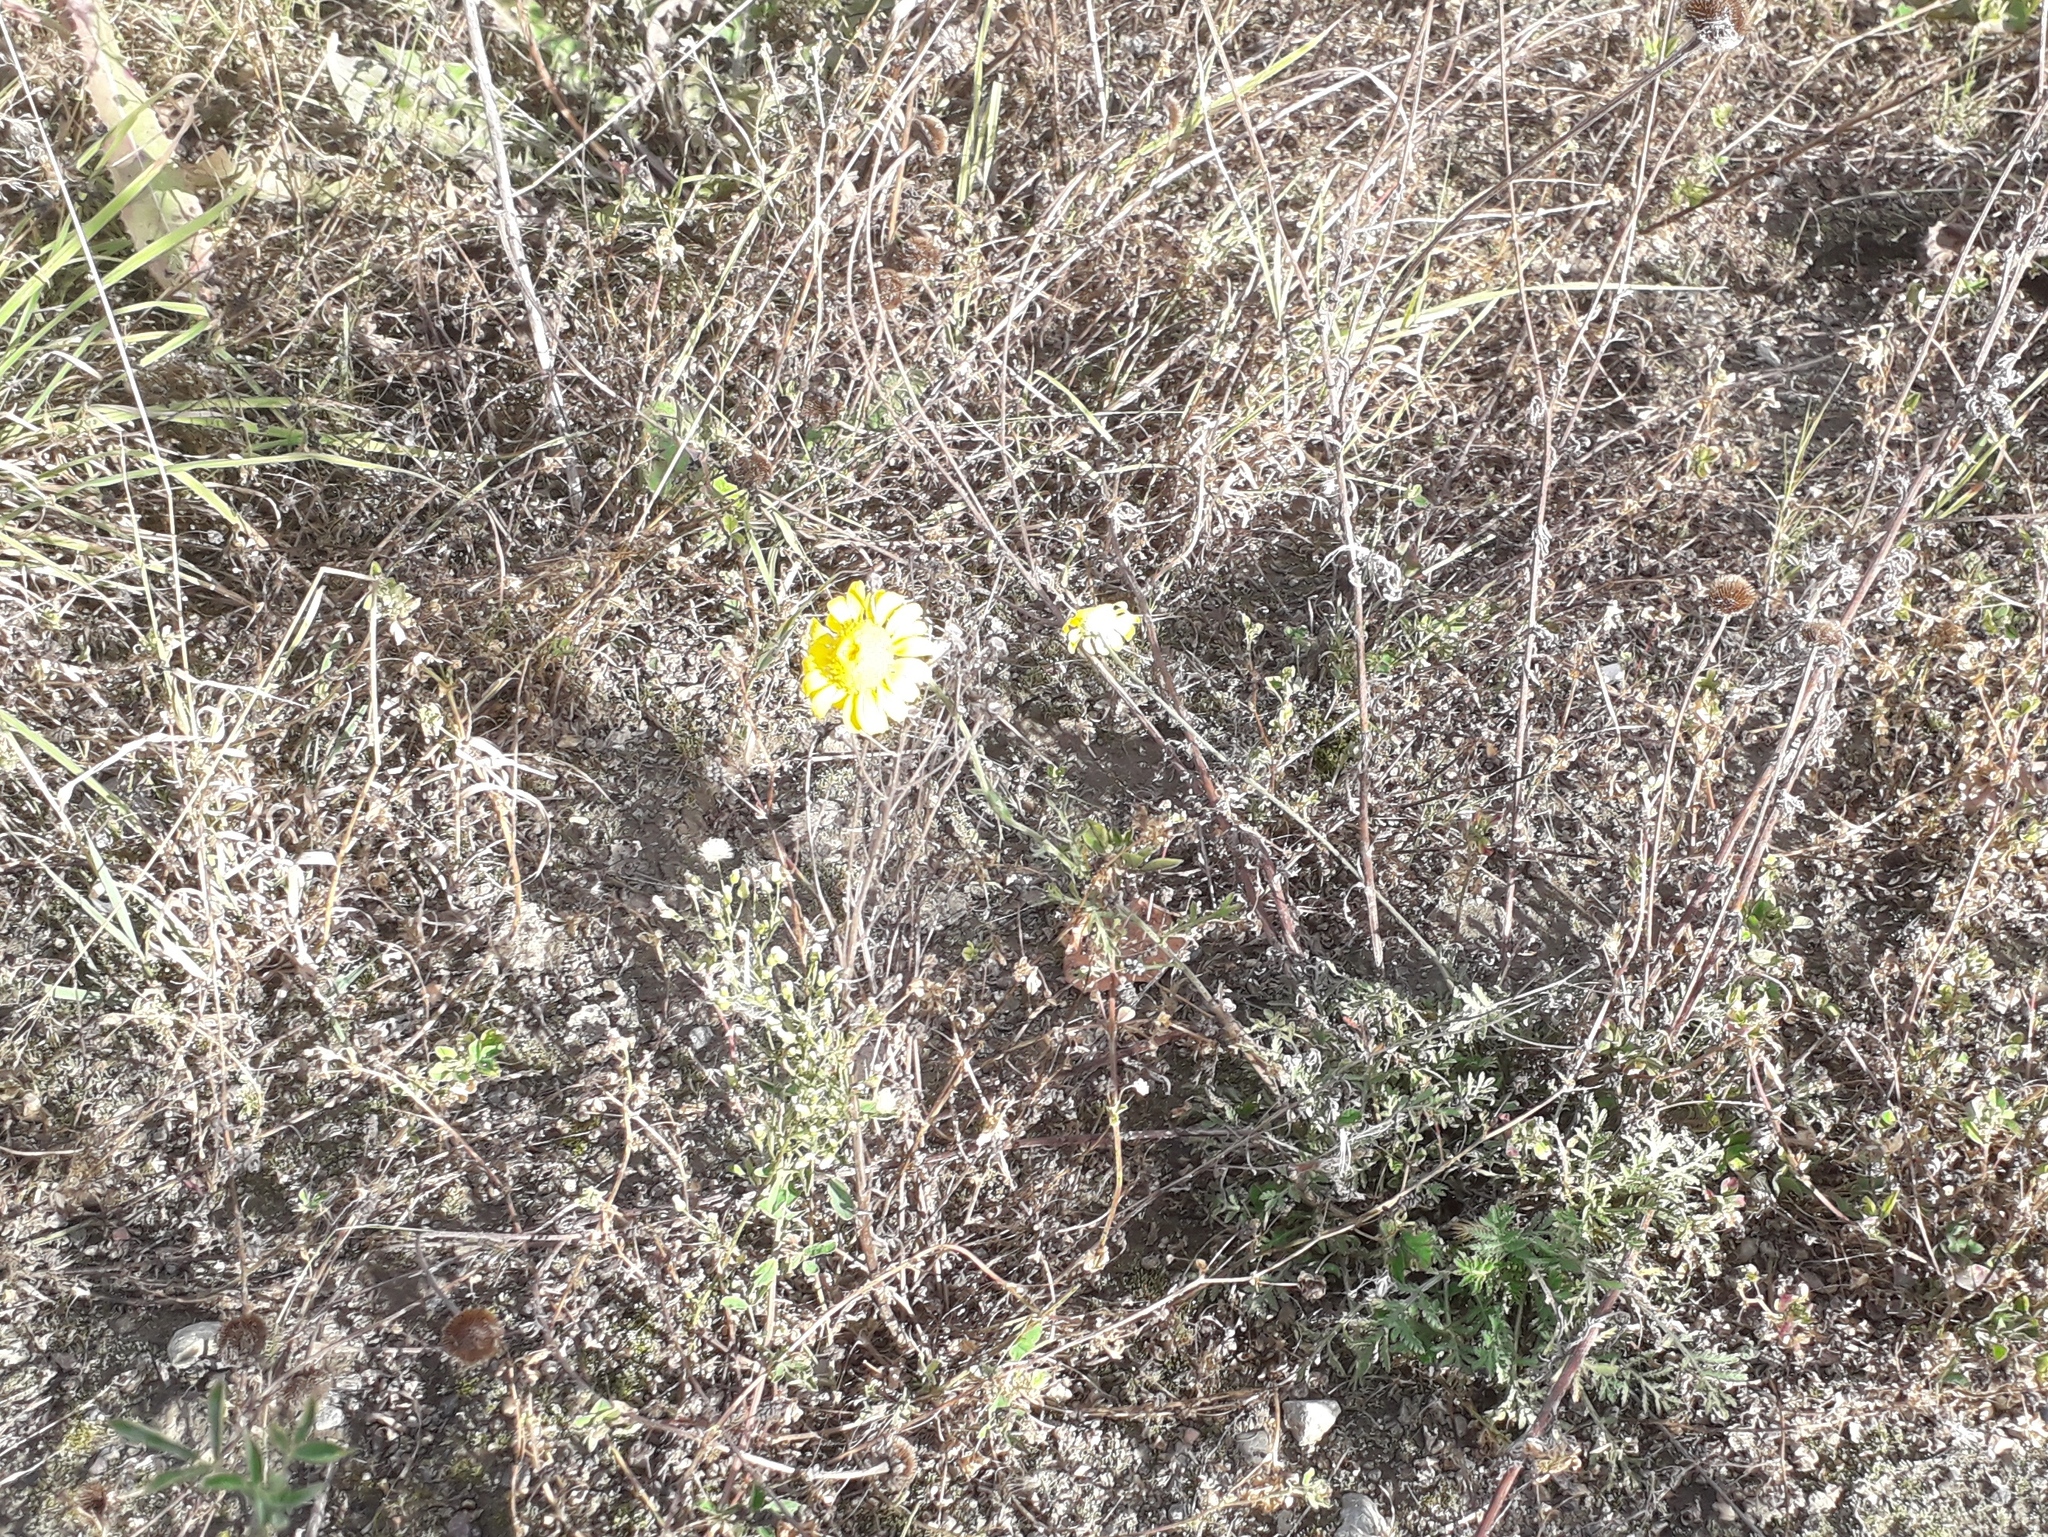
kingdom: Plantae
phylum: Tracheophyta
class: Magnoliopsida
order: Asterales
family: Asteraceae
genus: Cota
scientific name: Cota tinctoria
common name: Golden chamomile
